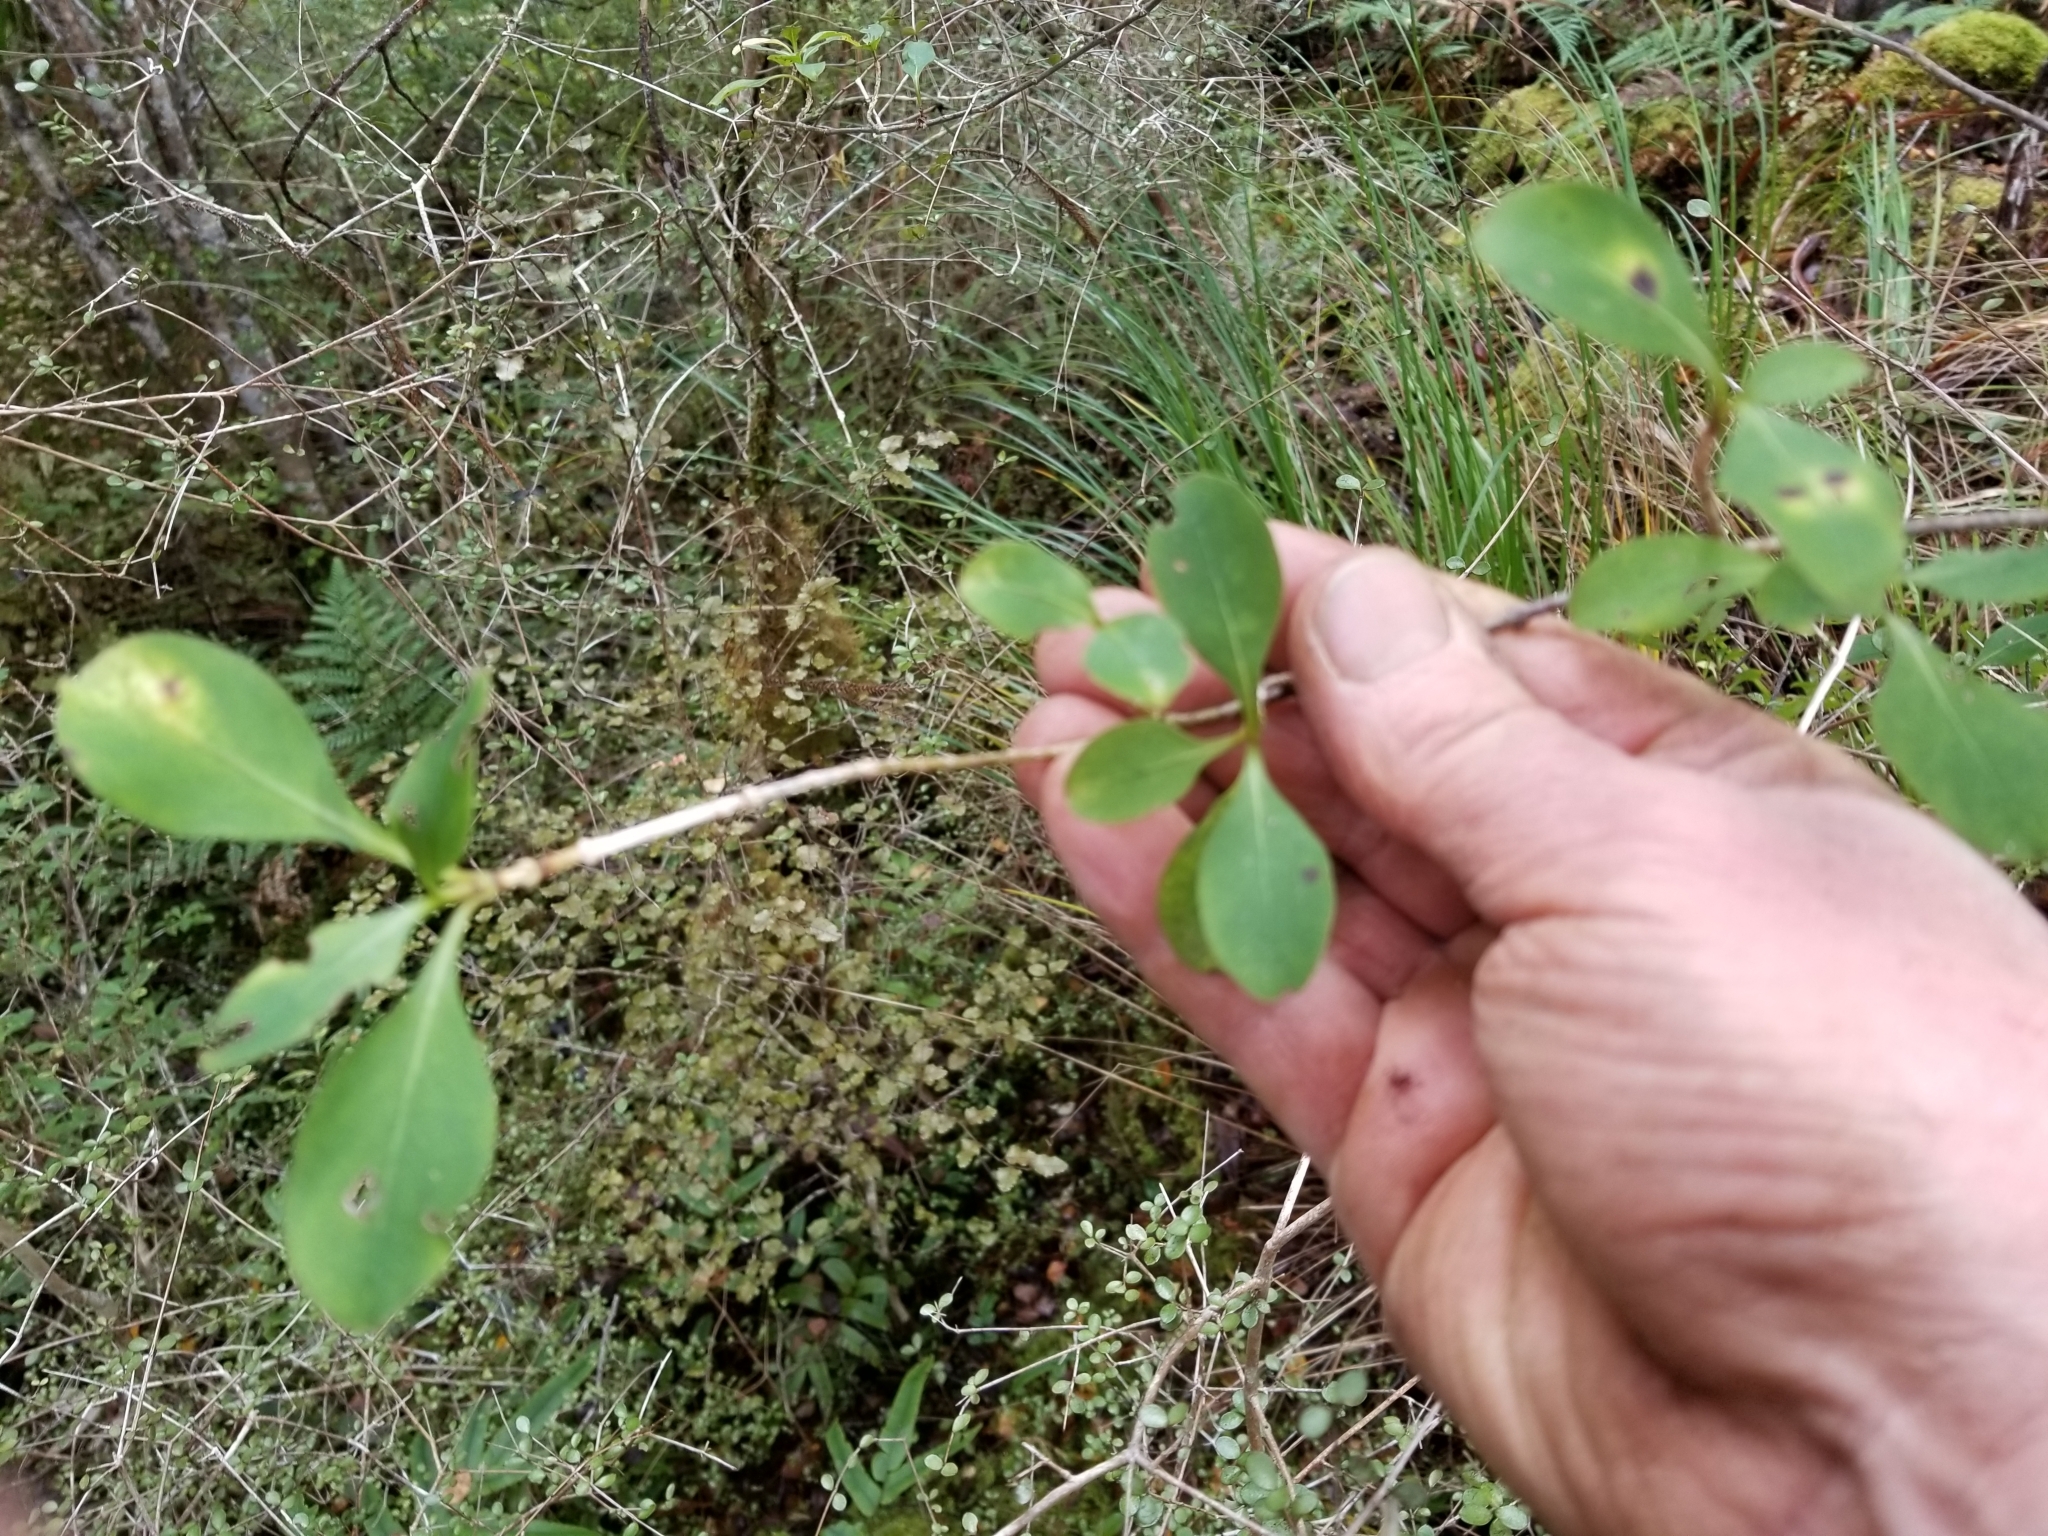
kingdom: Plantae
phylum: Tracheophyta
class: Magnoliopsida
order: Gentianales
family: Rubiaceae
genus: Coprosma
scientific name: Coprosma foetidissima
